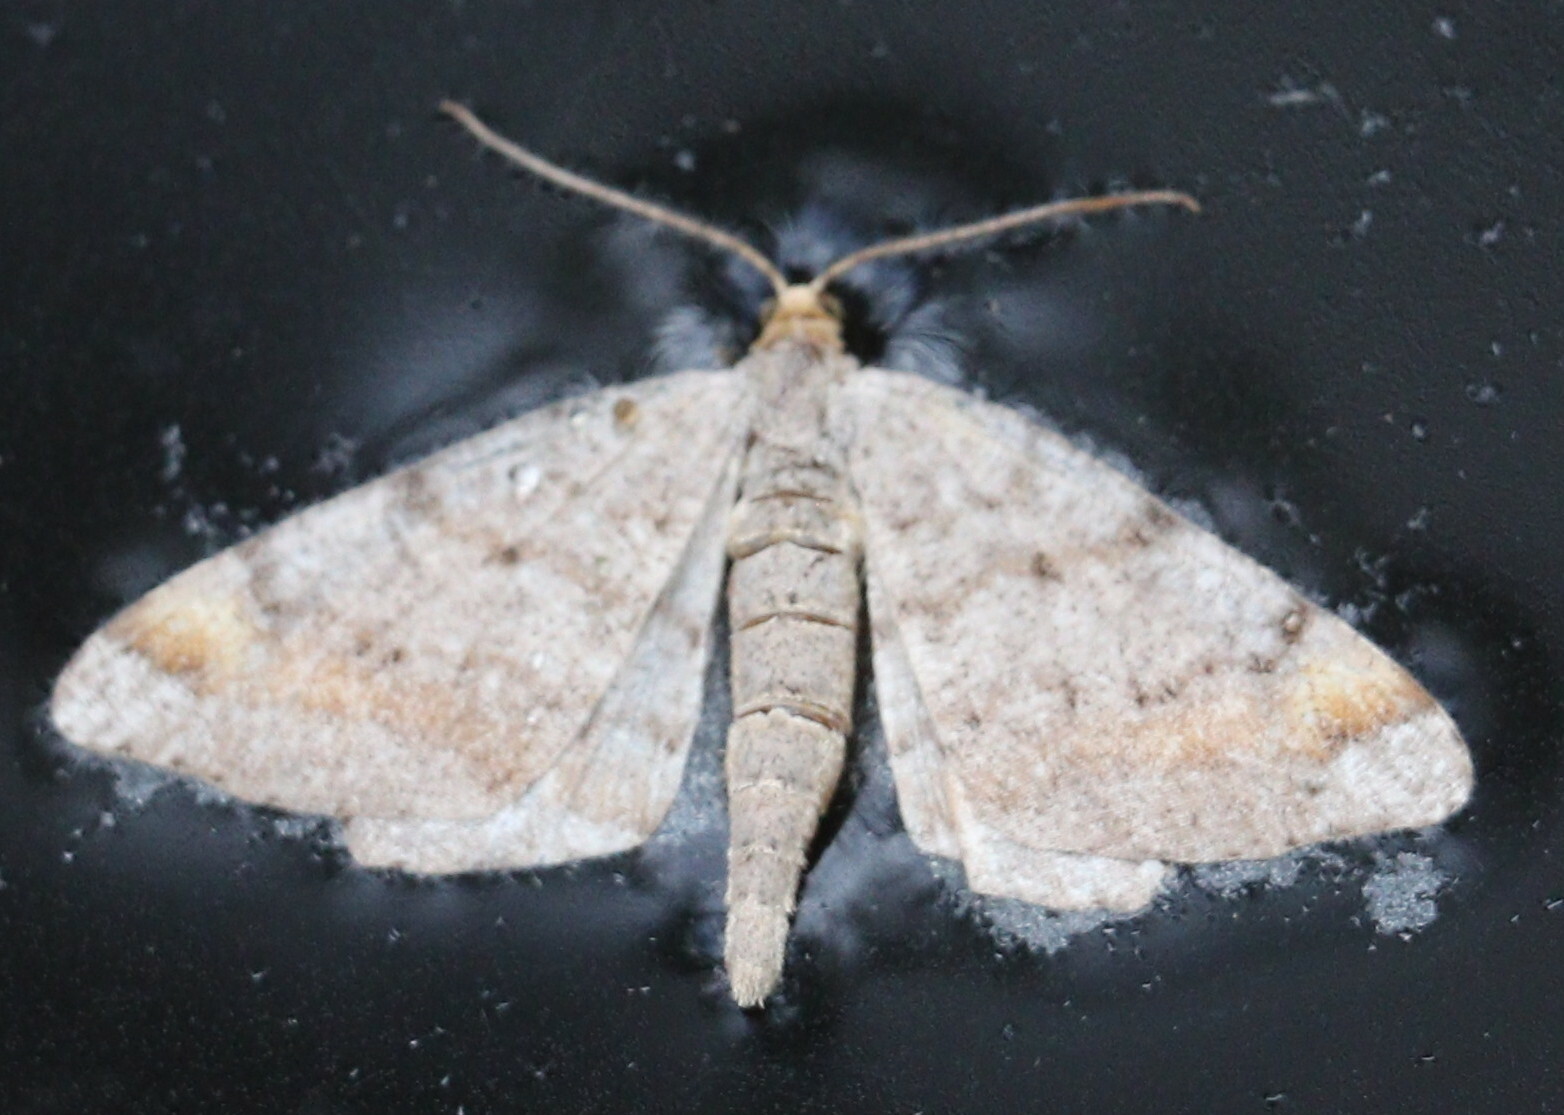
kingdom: Animalia
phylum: Arthropoda
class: Insecta
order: Lepidoptera
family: Geometridae
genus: Macaria
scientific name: Macaria liturata
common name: Tawny-barred angle
